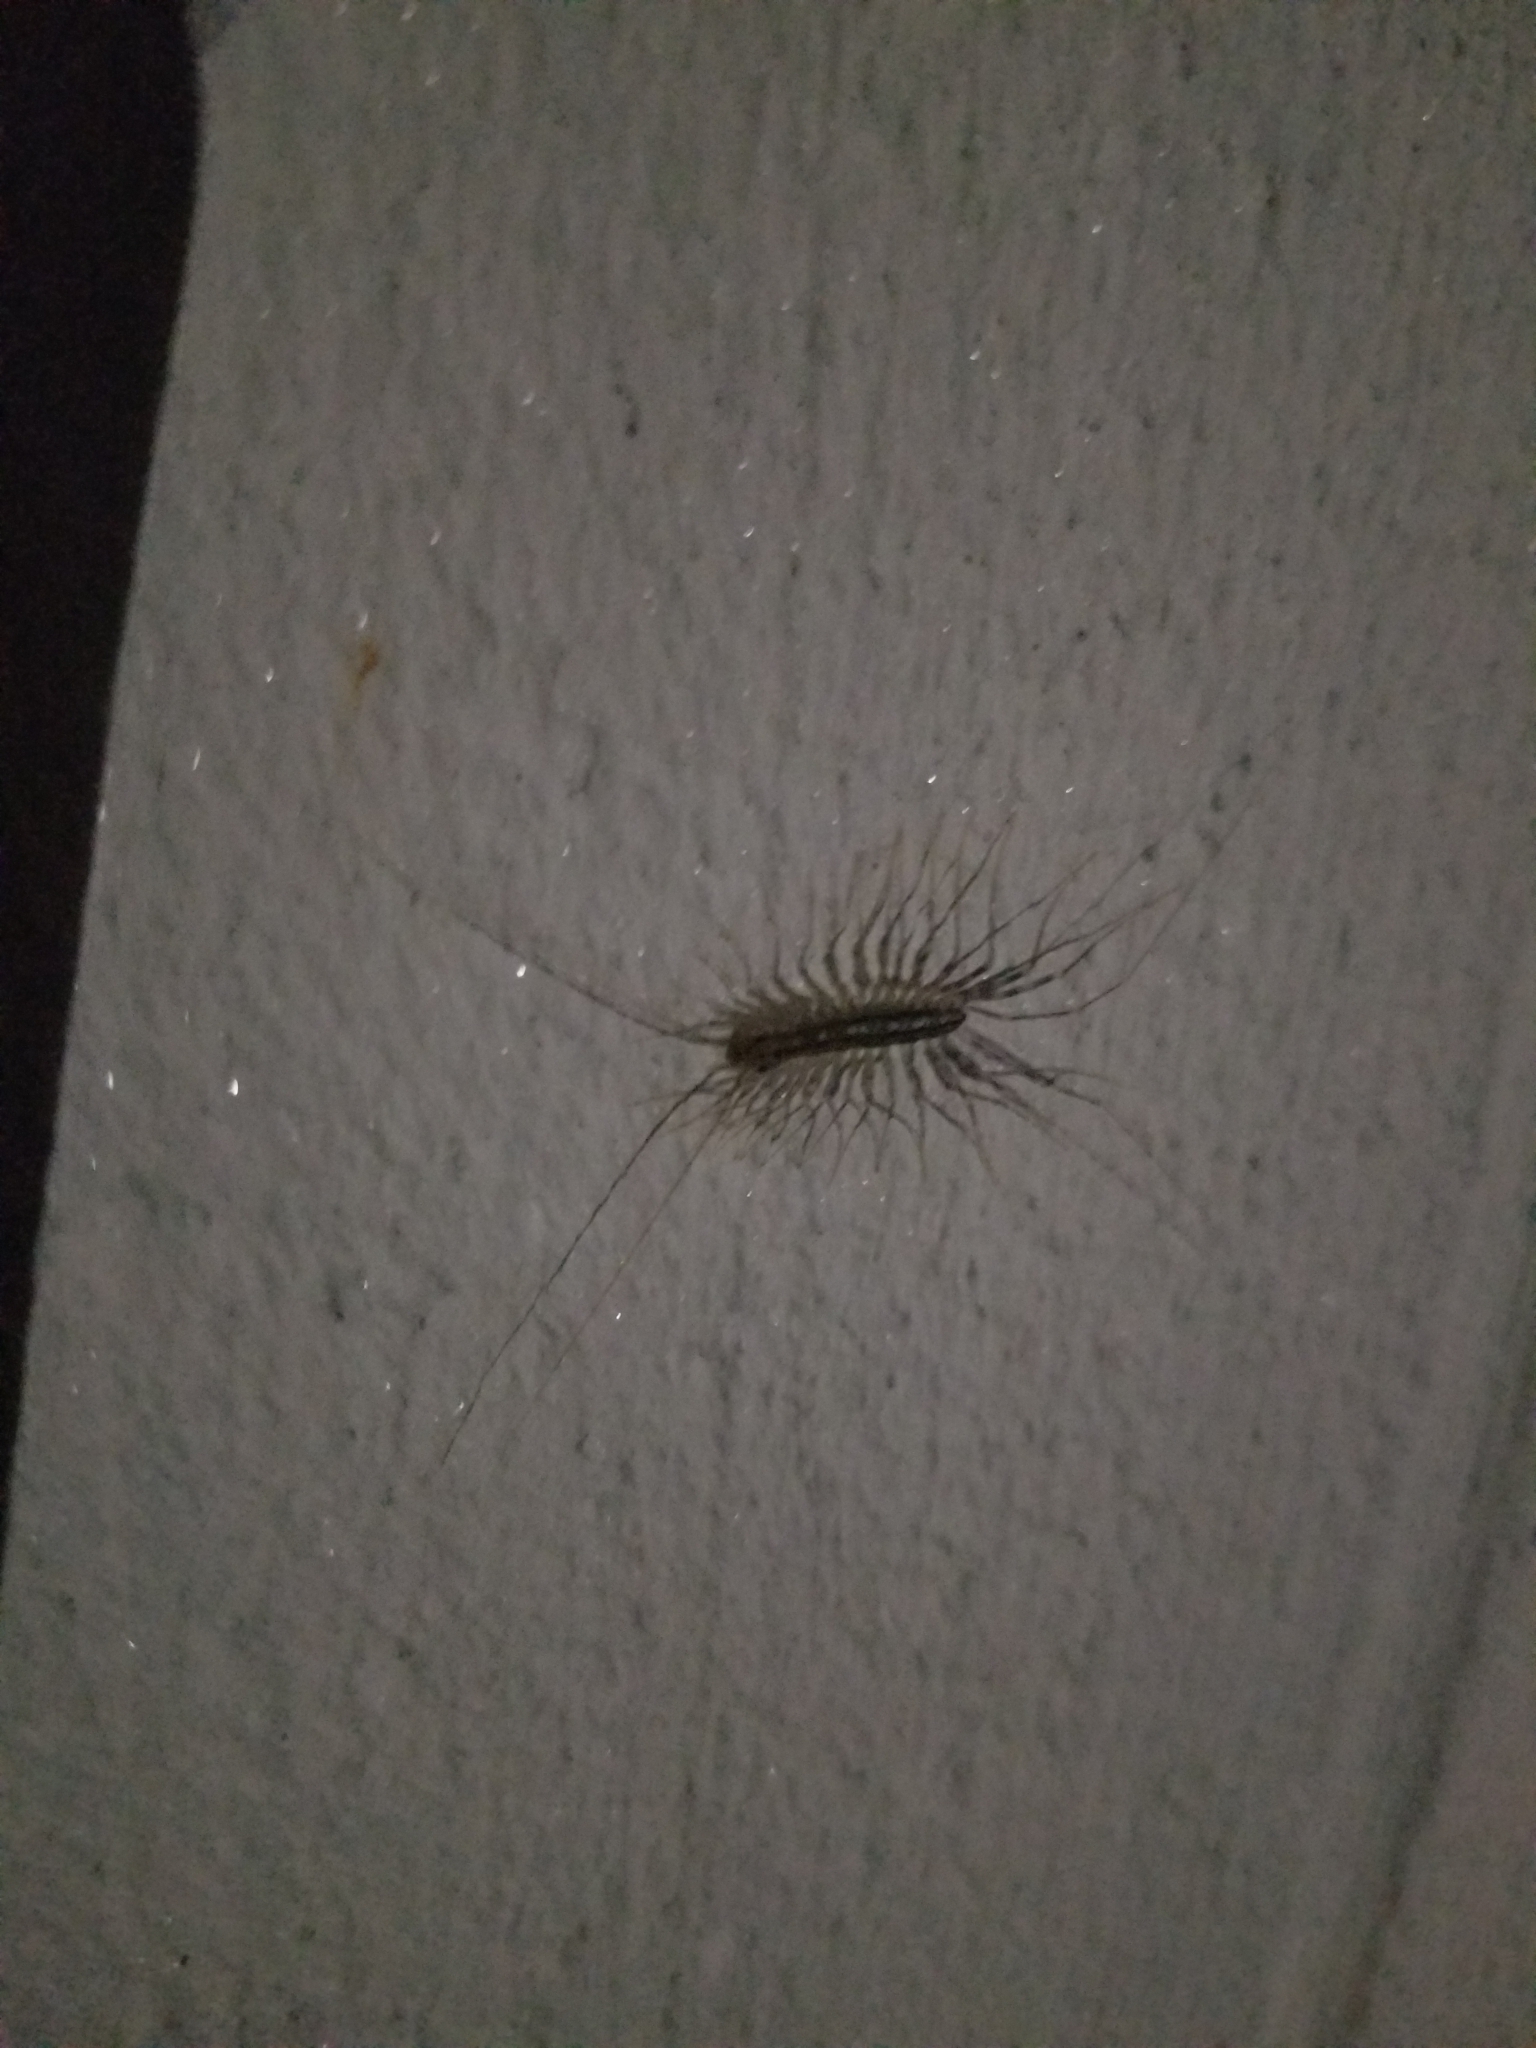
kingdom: Animalia
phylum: Arthropoda
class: Chilopoda
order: Scutigeromorpha
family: Scutigeridae
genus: Scutigera
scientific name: Scutigera coleoptrata
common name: House centipede
